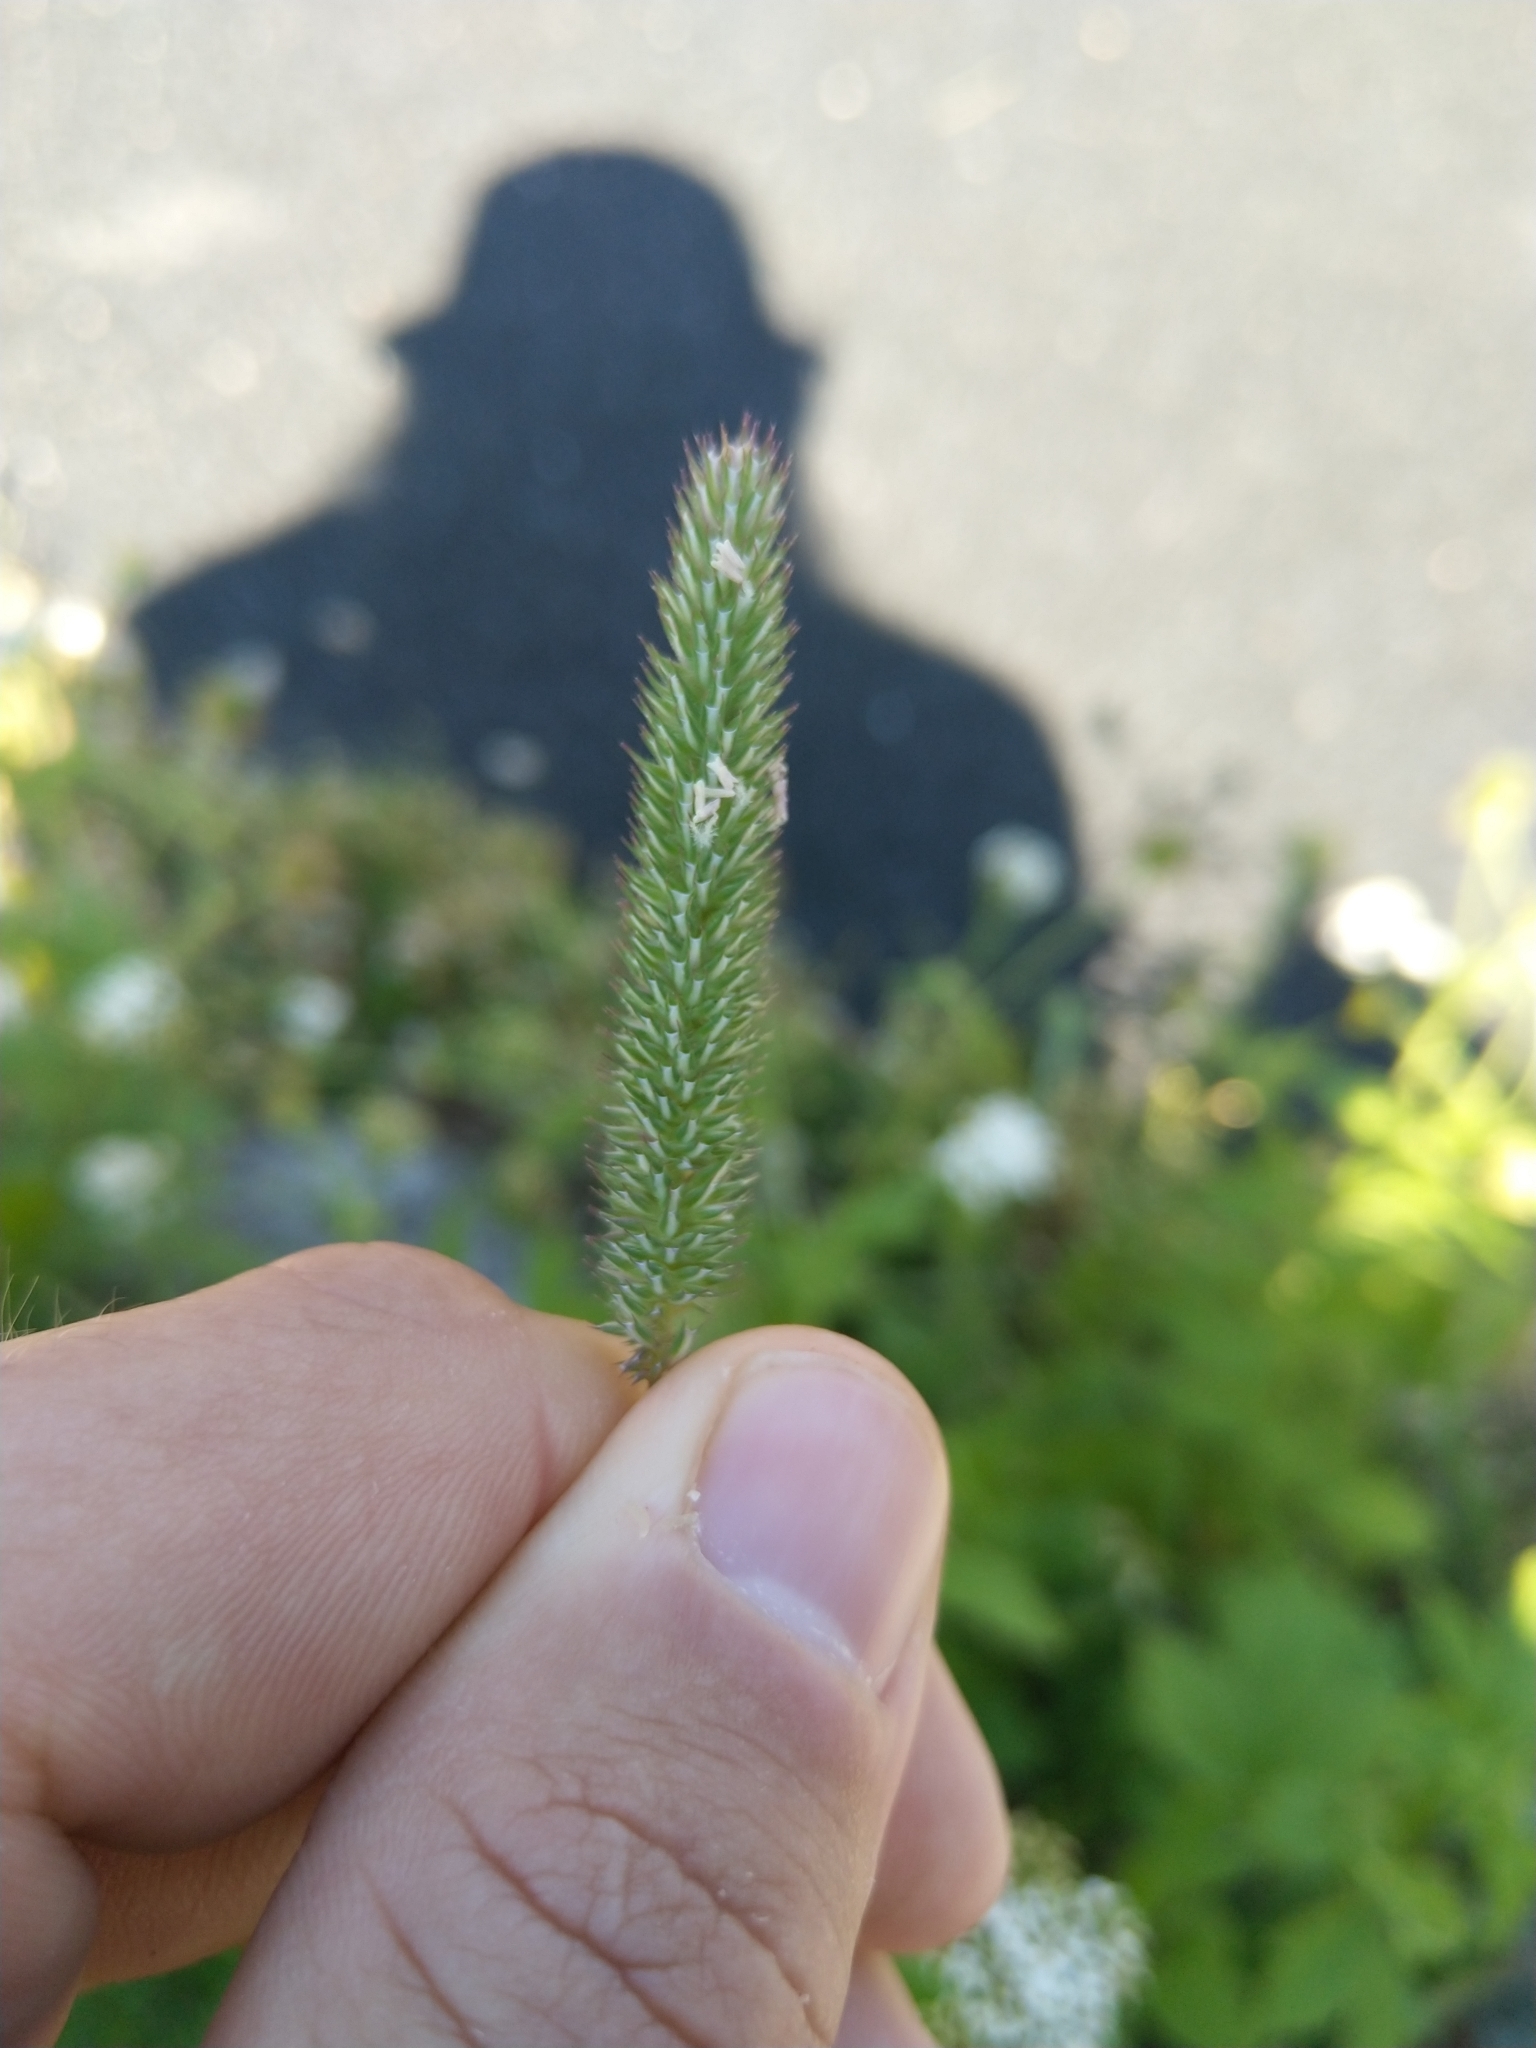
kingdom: Plantae
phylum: Tracheophyta
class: Liliopsida
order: Poales
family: Poaceae
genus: Phleum
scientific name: Phleum pratense
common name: Timothy grass
